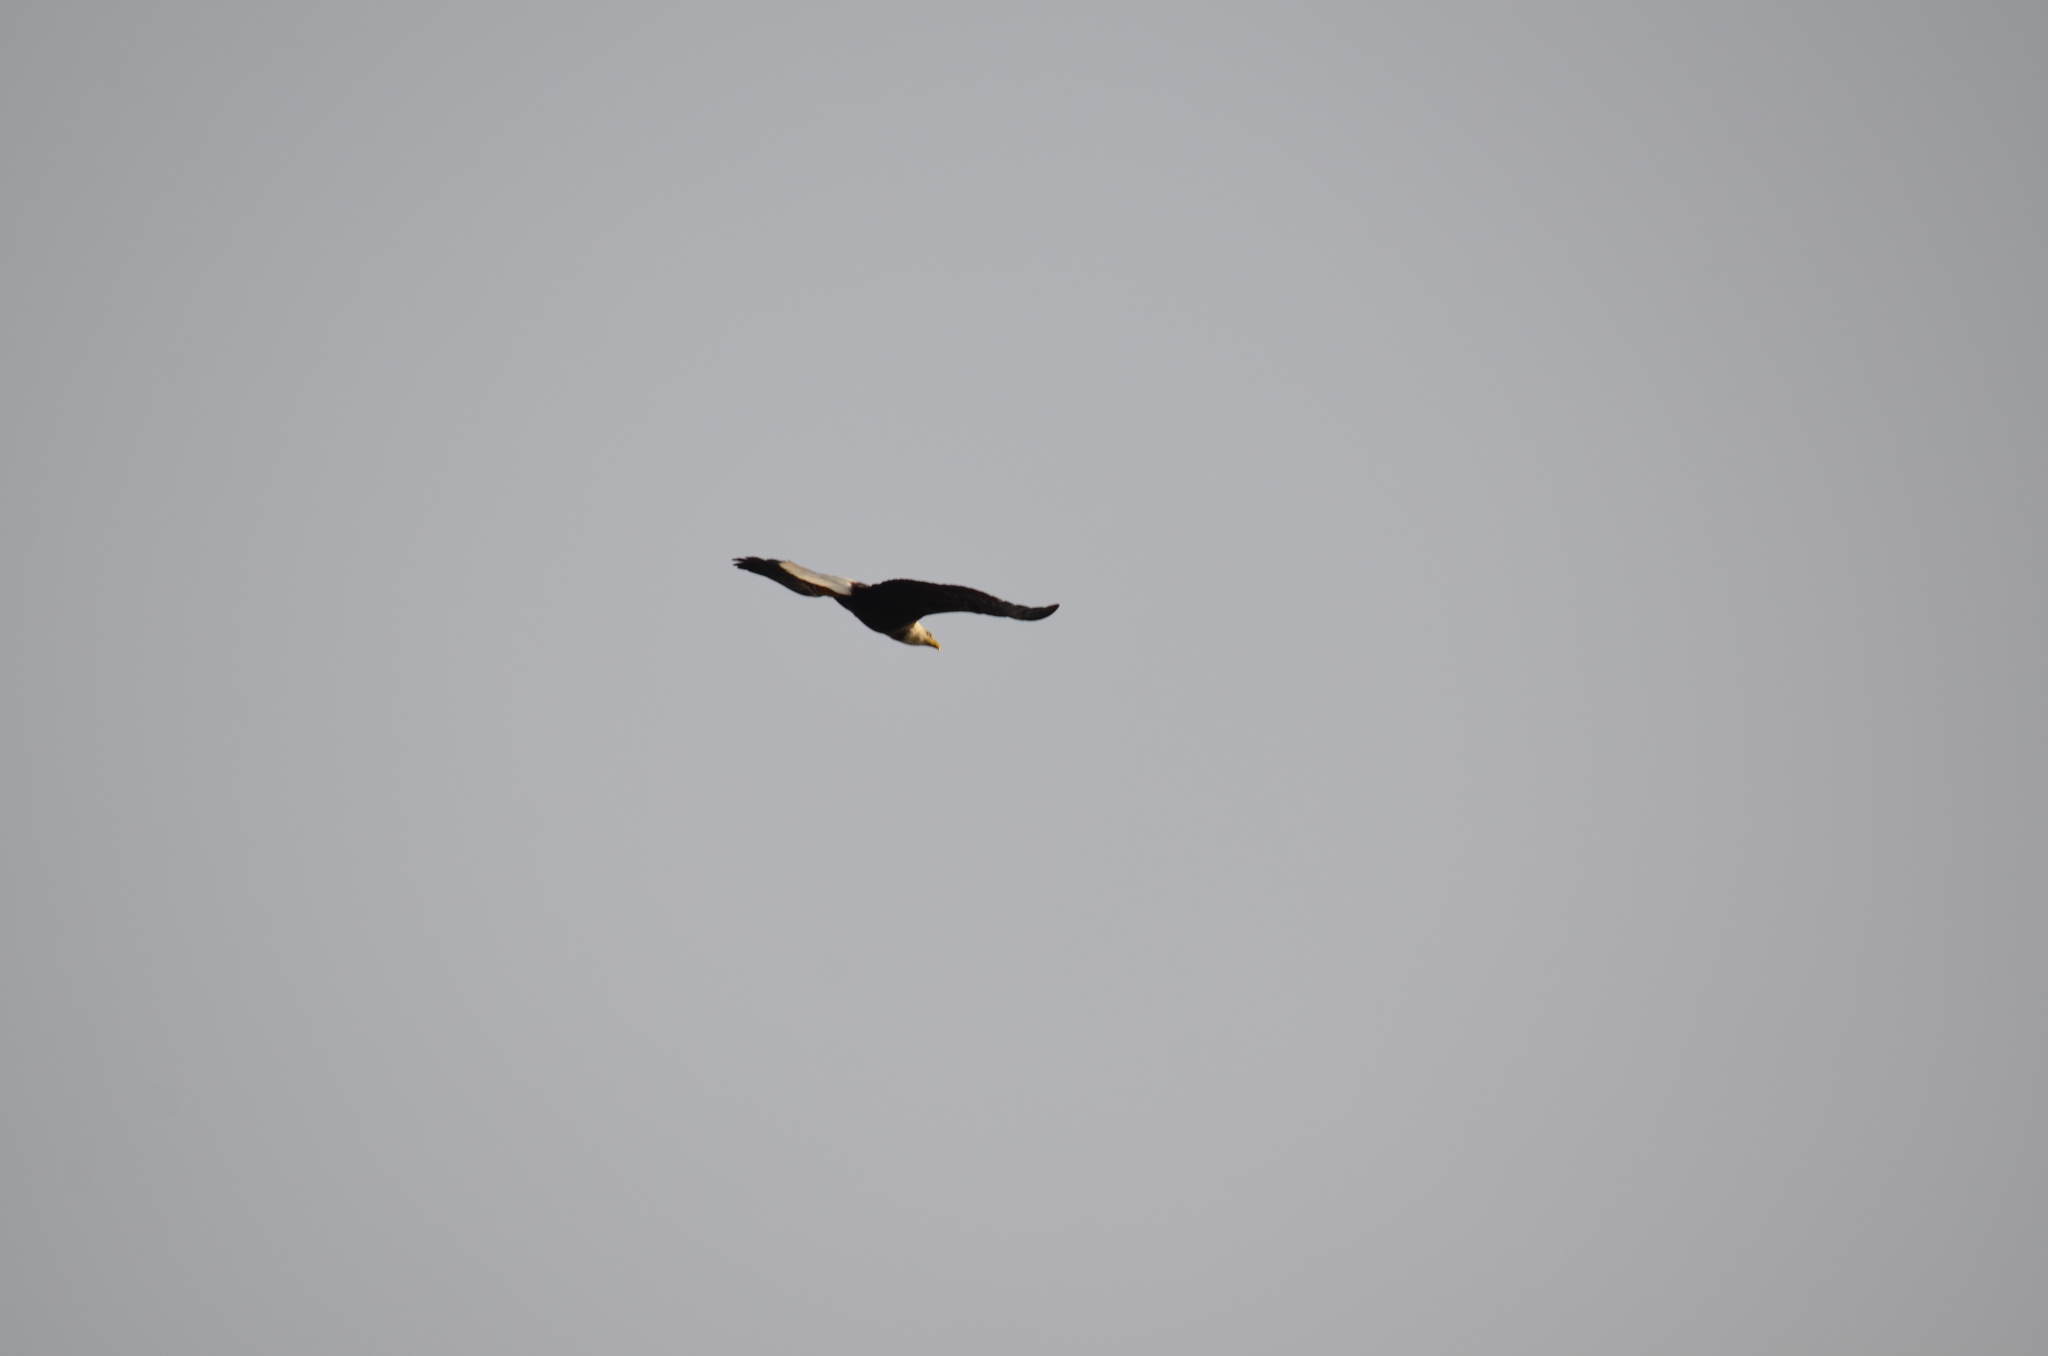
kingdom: Animalia
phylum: Chordata
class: Aves
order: Accipitriformes
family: Accipitridae
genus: Haliaeetus
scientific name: Haliaeetus leucocephalus
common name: Bald eagle
